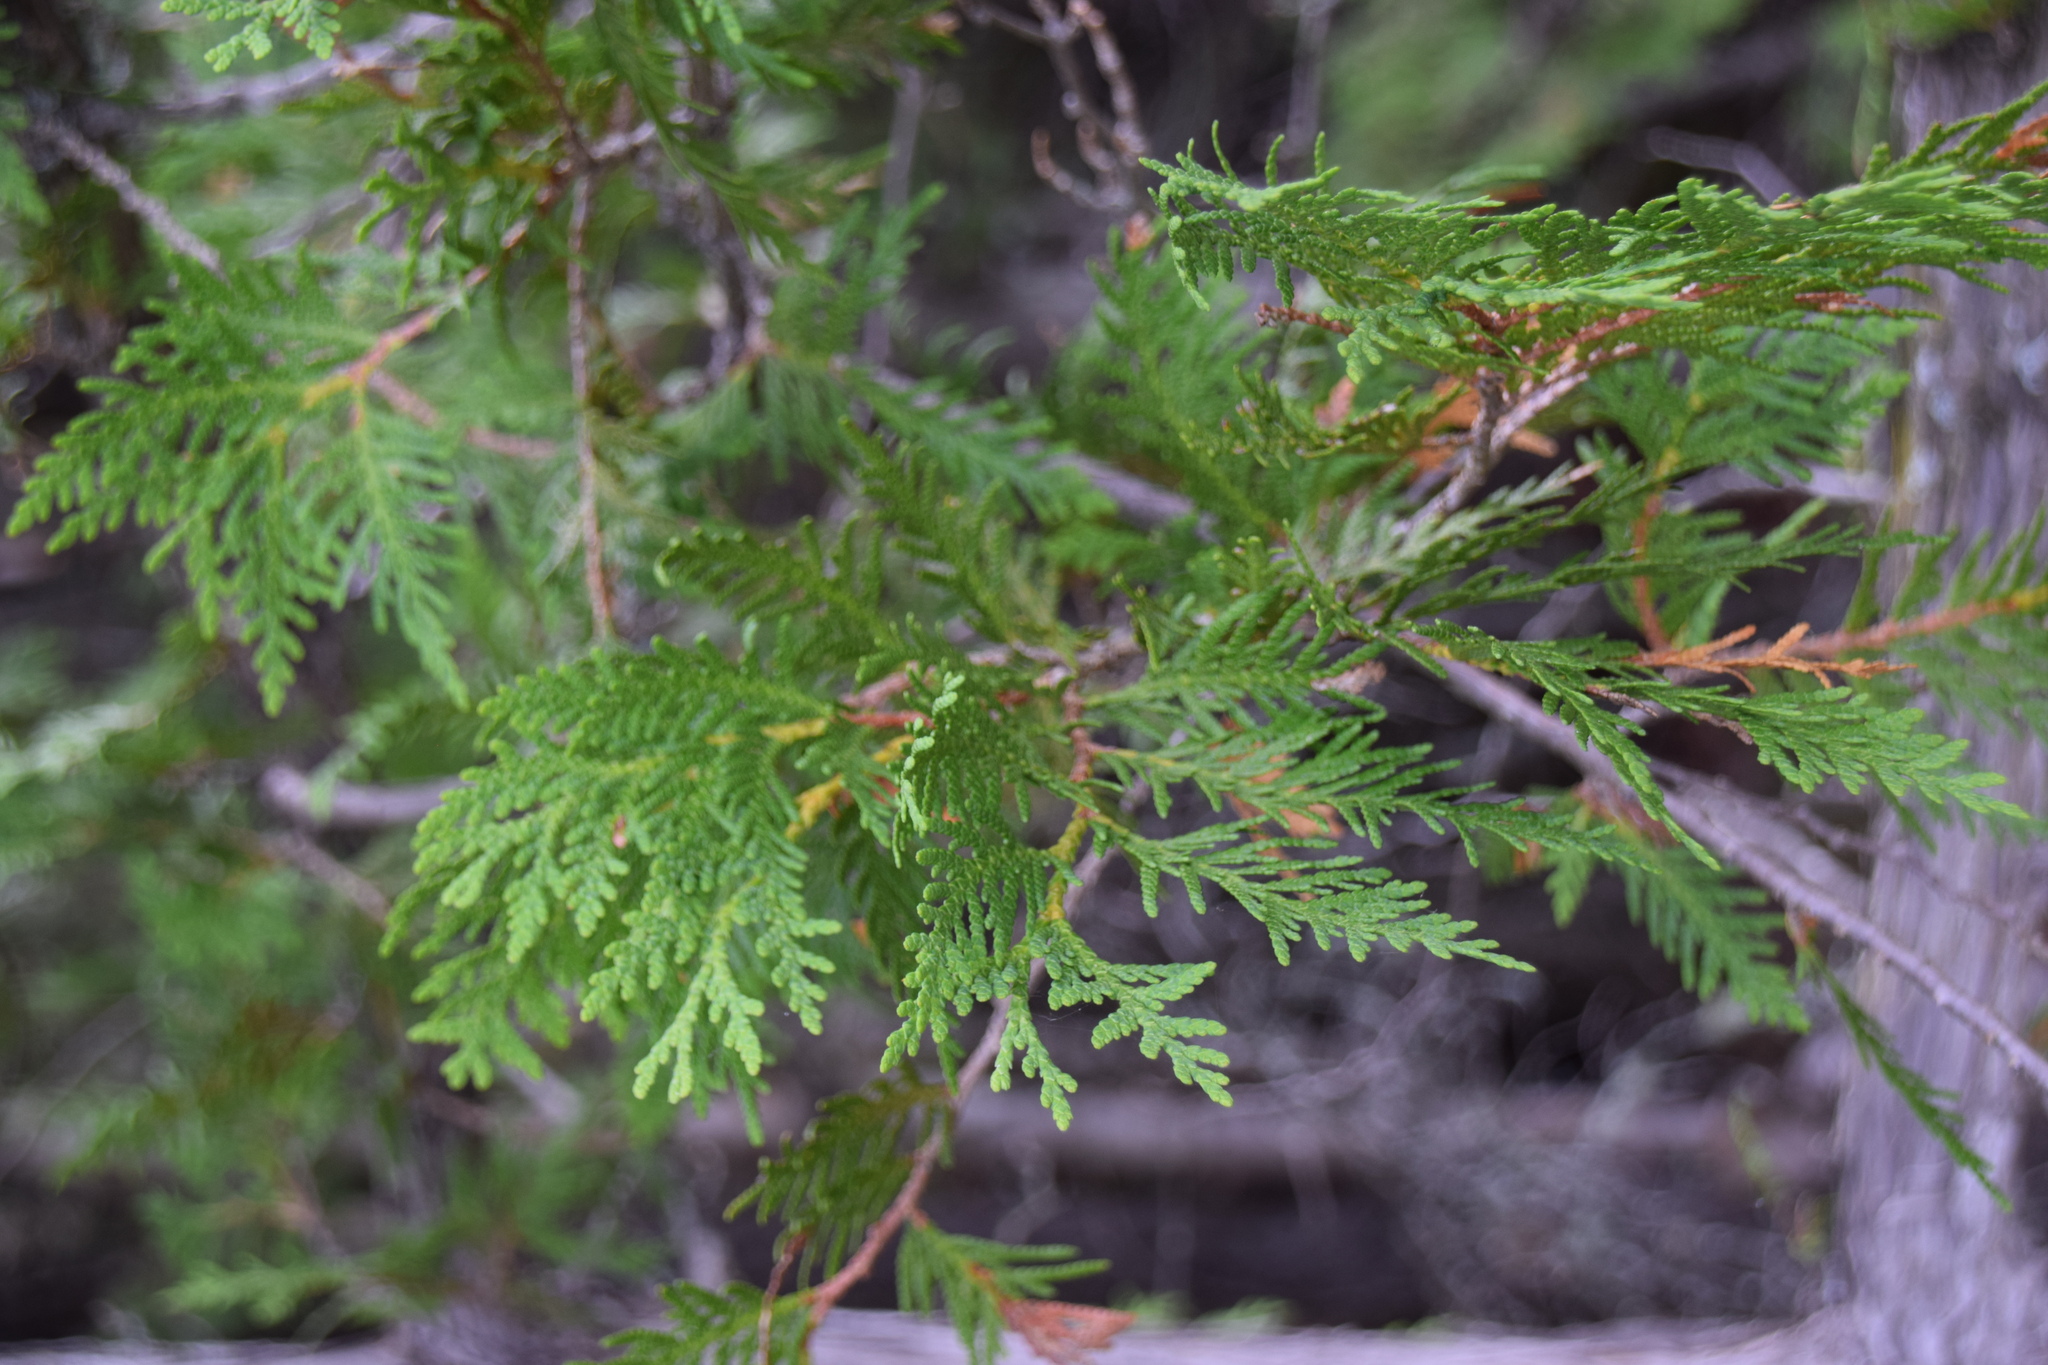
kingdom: Plantae
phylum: Tracheophyta
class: Pinopsida
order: Pinales
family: Cupressaceae
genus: Thuja
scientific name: Thuja occidentalis
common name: Northern white-cedar
